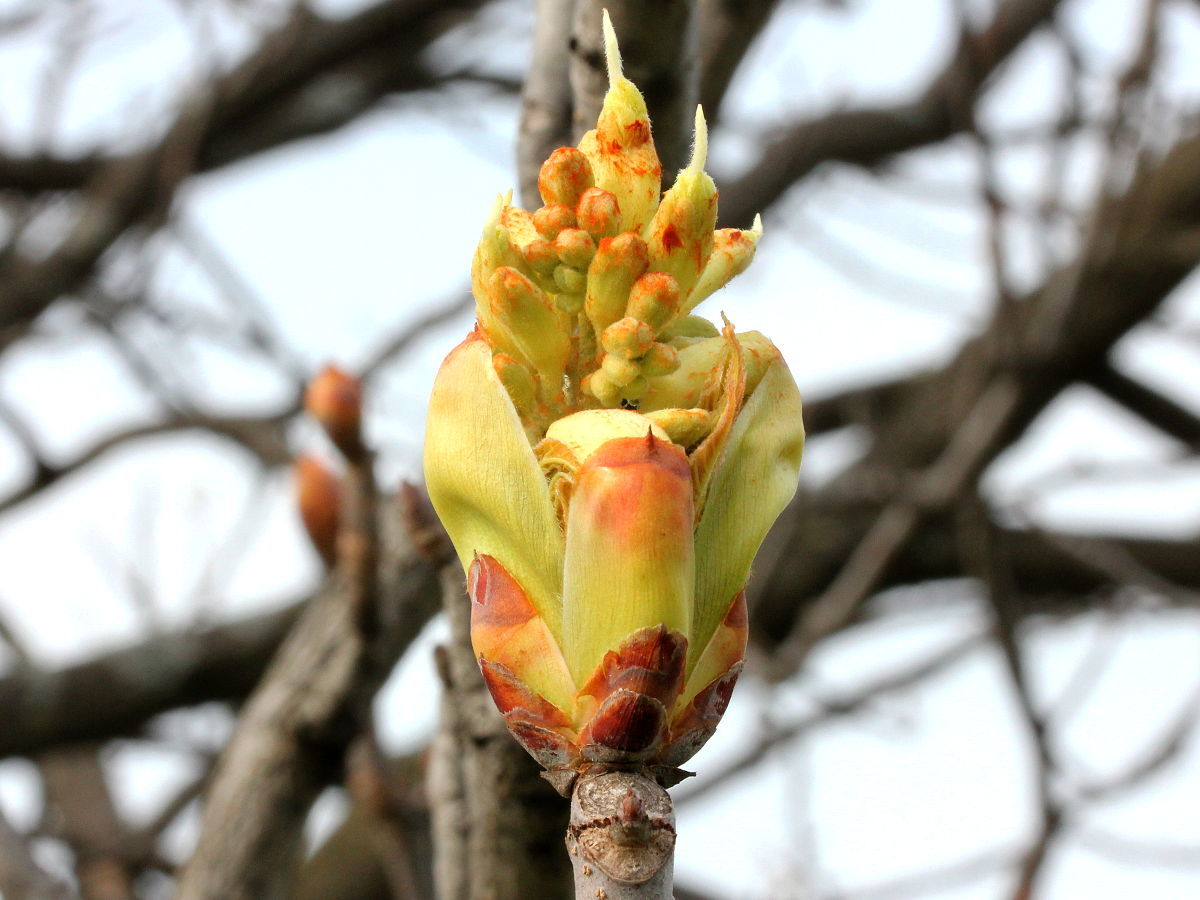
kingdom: Plantae
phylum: Tracheophyta
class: Magnoliopsida
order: Sapindales
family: Sapindaceae
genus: Aesculus
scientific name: Aesculus glabra
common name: Ohio buckeye
